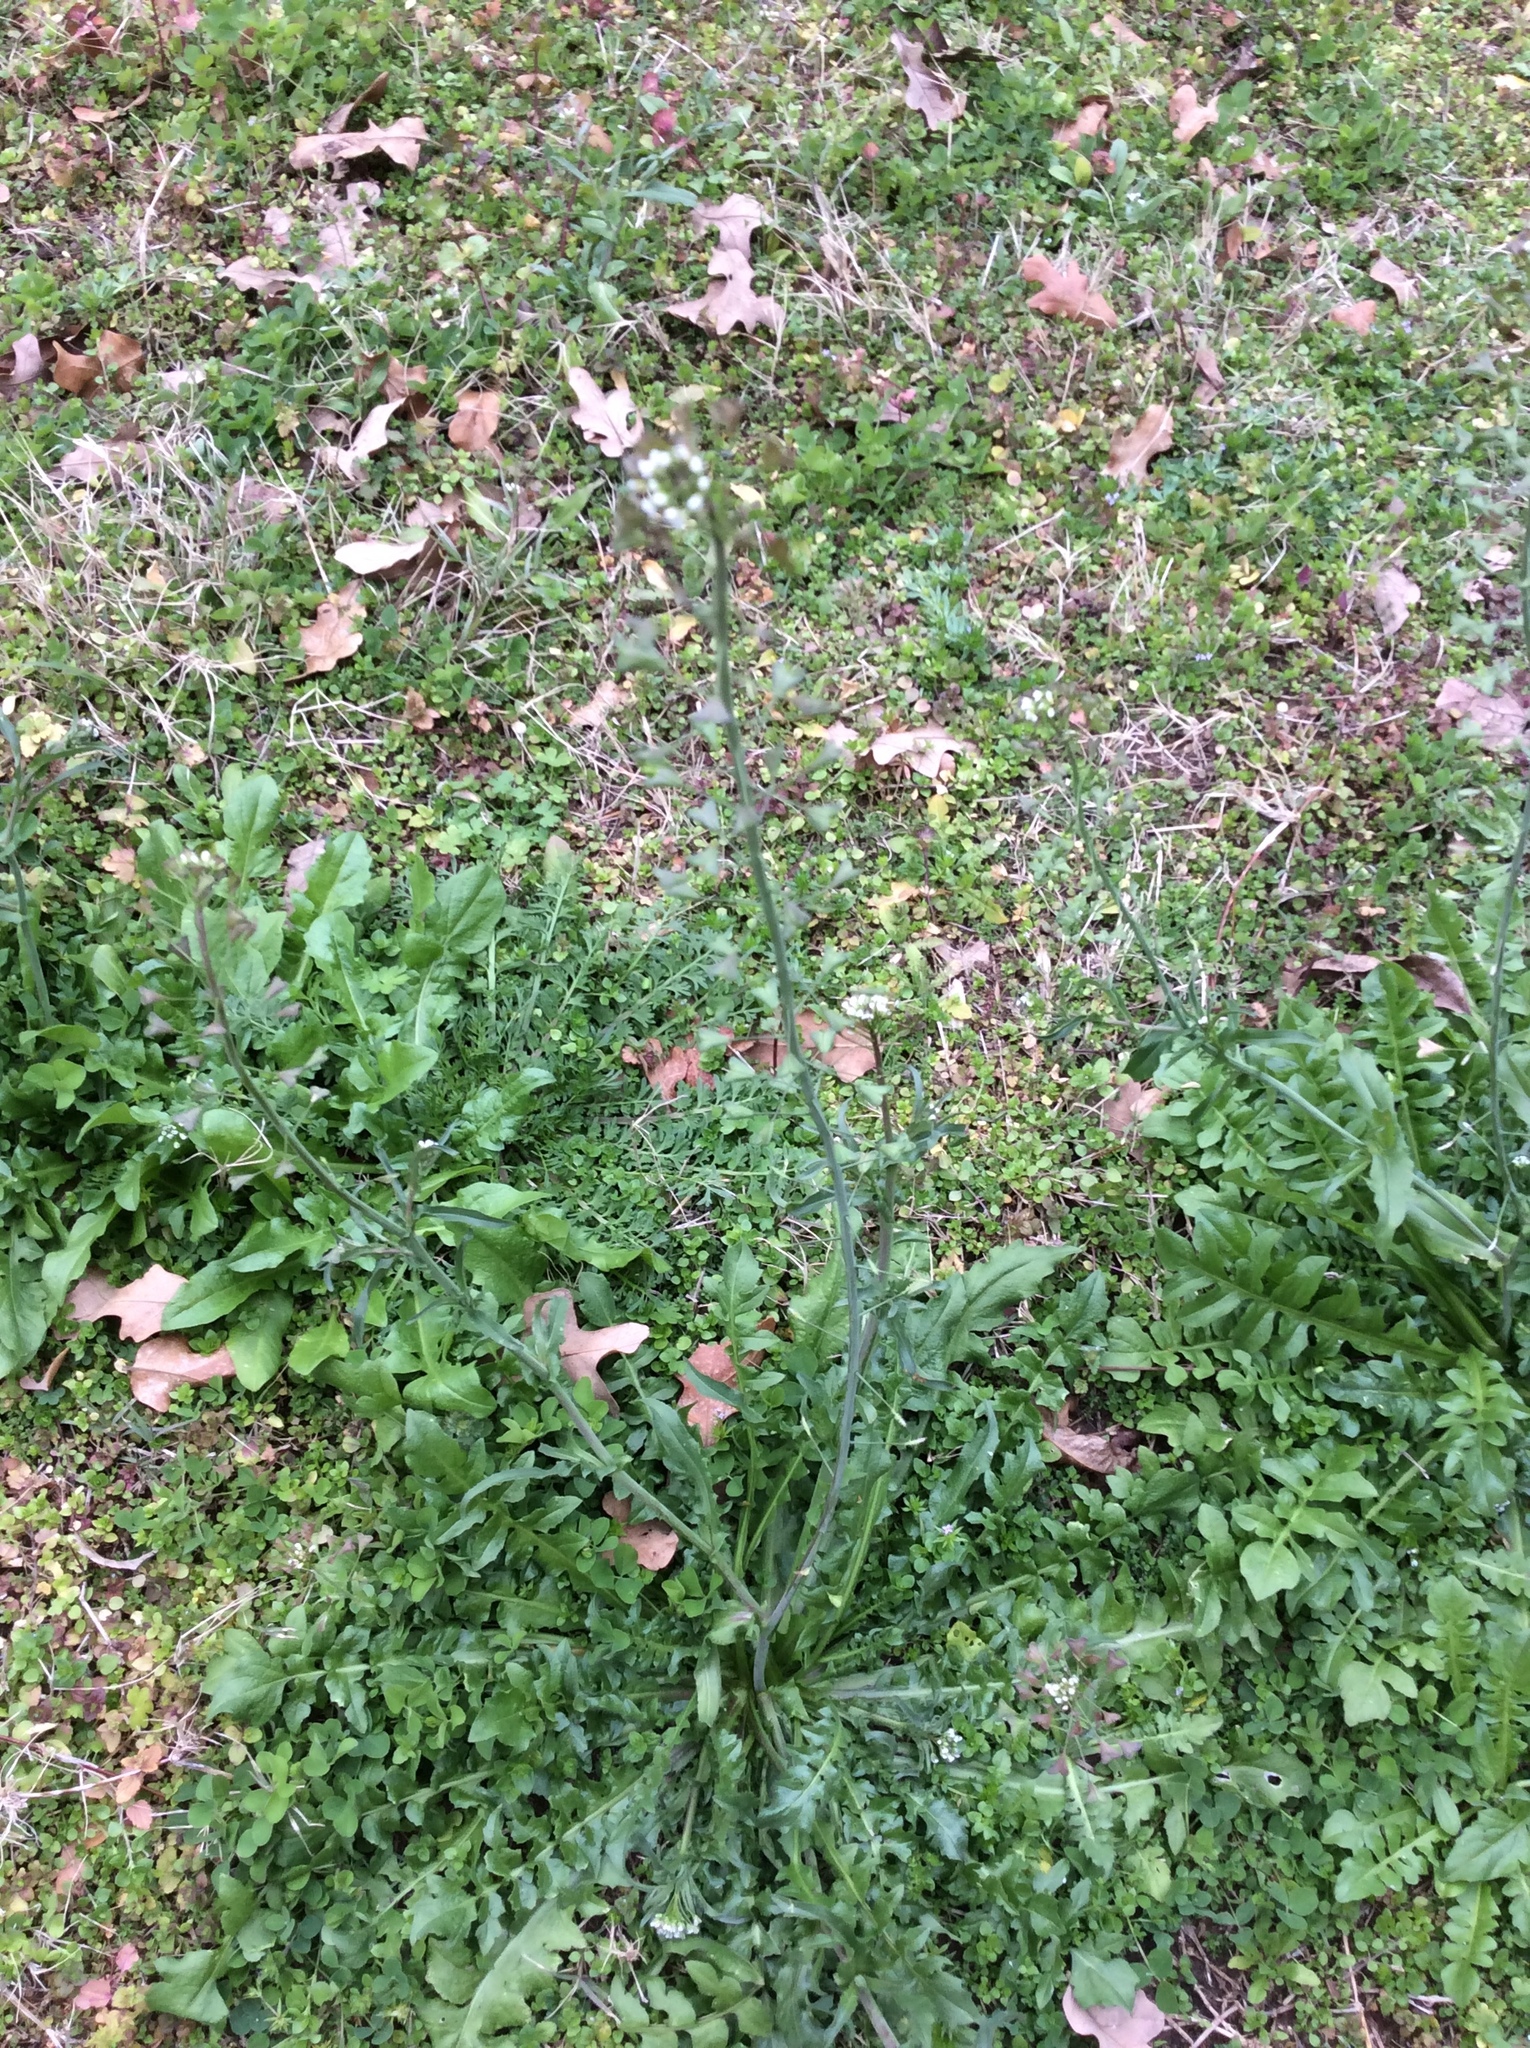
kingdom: Plantae
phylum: Tracheophyta
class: Magnoliopsida
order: Brassicales
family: Brassicaceae
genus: Capsella
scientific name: Capsella bursa-pastoris
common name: Shepherd's purse
